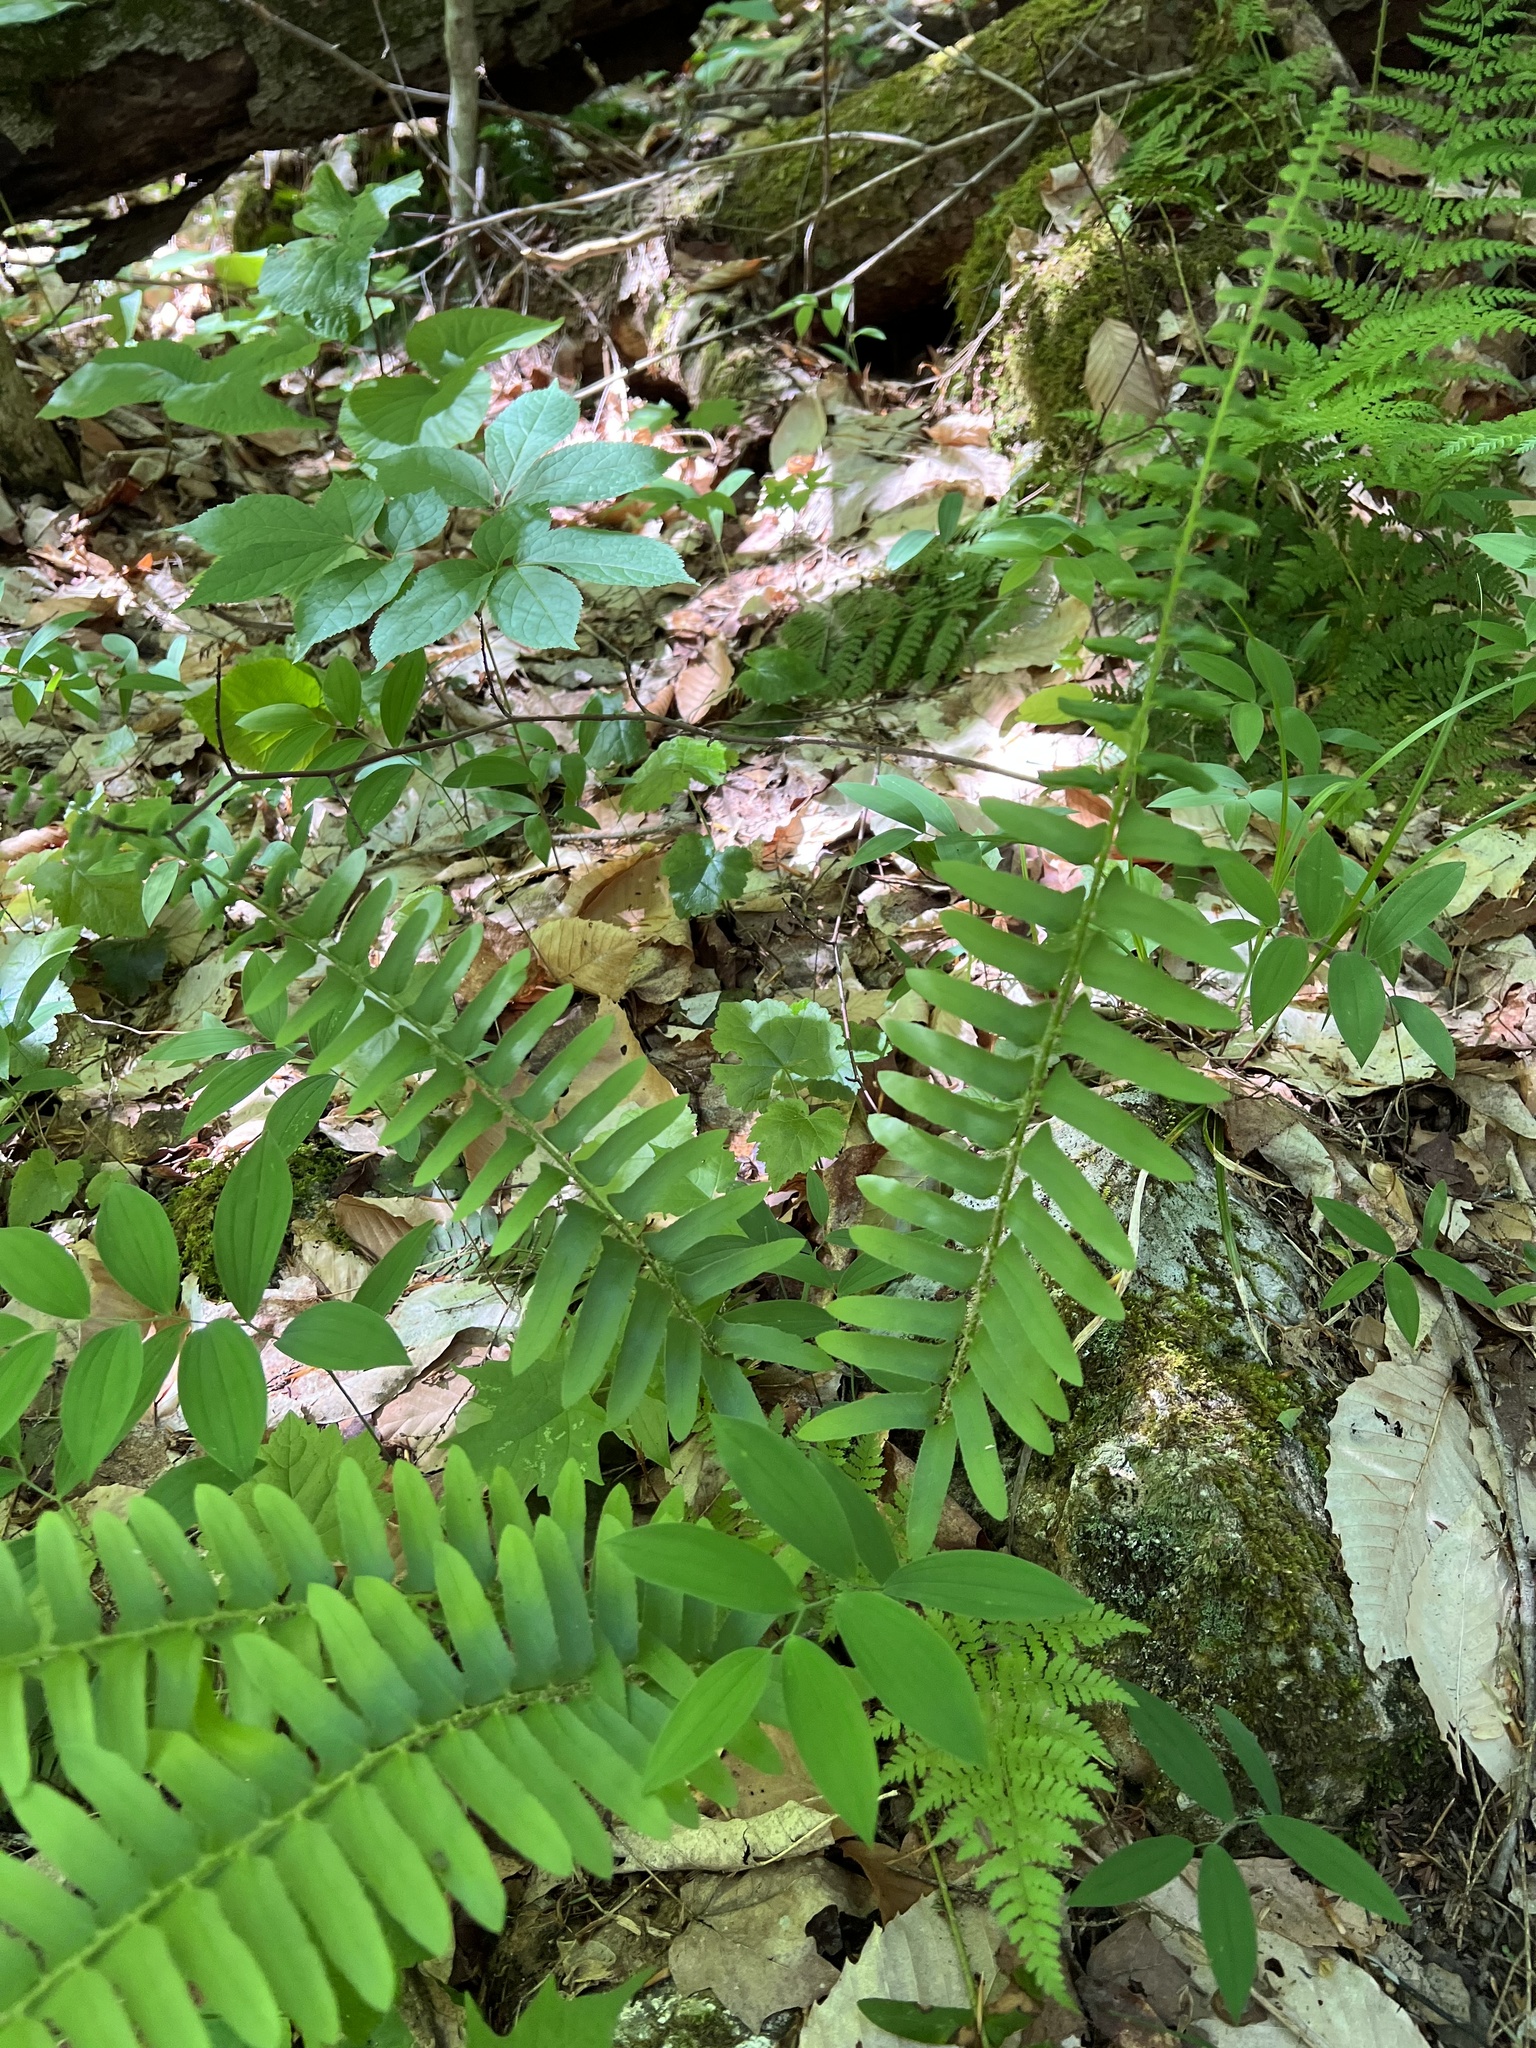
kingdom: Plantae
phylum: Tracheophyta
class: Polypodiopsida
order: Polypodiales
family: Dryopteridaceae
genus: Polystichum
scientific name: Polystichum acrostichoides
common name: Christmas fern
